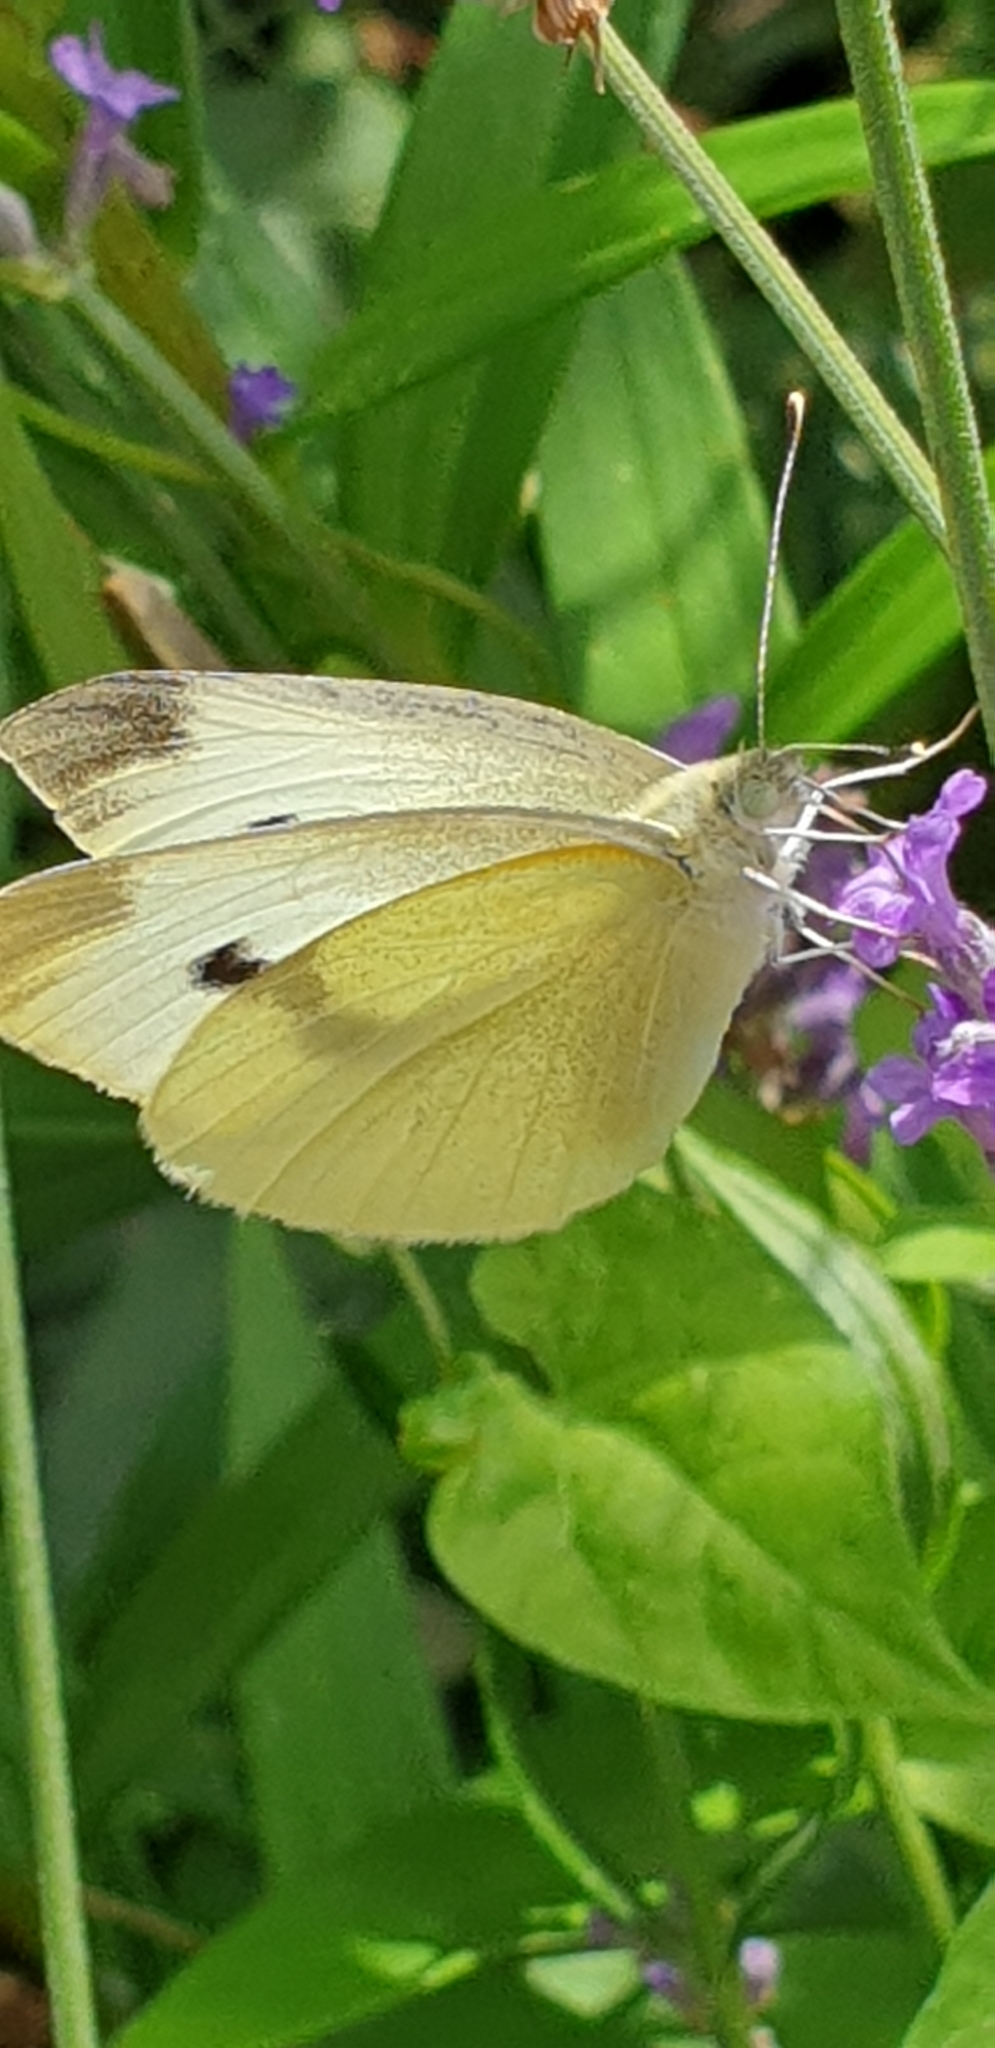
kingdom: Animalia
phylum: Arthropoda
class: Insecta
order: Lepidoptera
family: Pieridae
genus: Pieris
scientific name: Pieris rapae
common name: Small white
